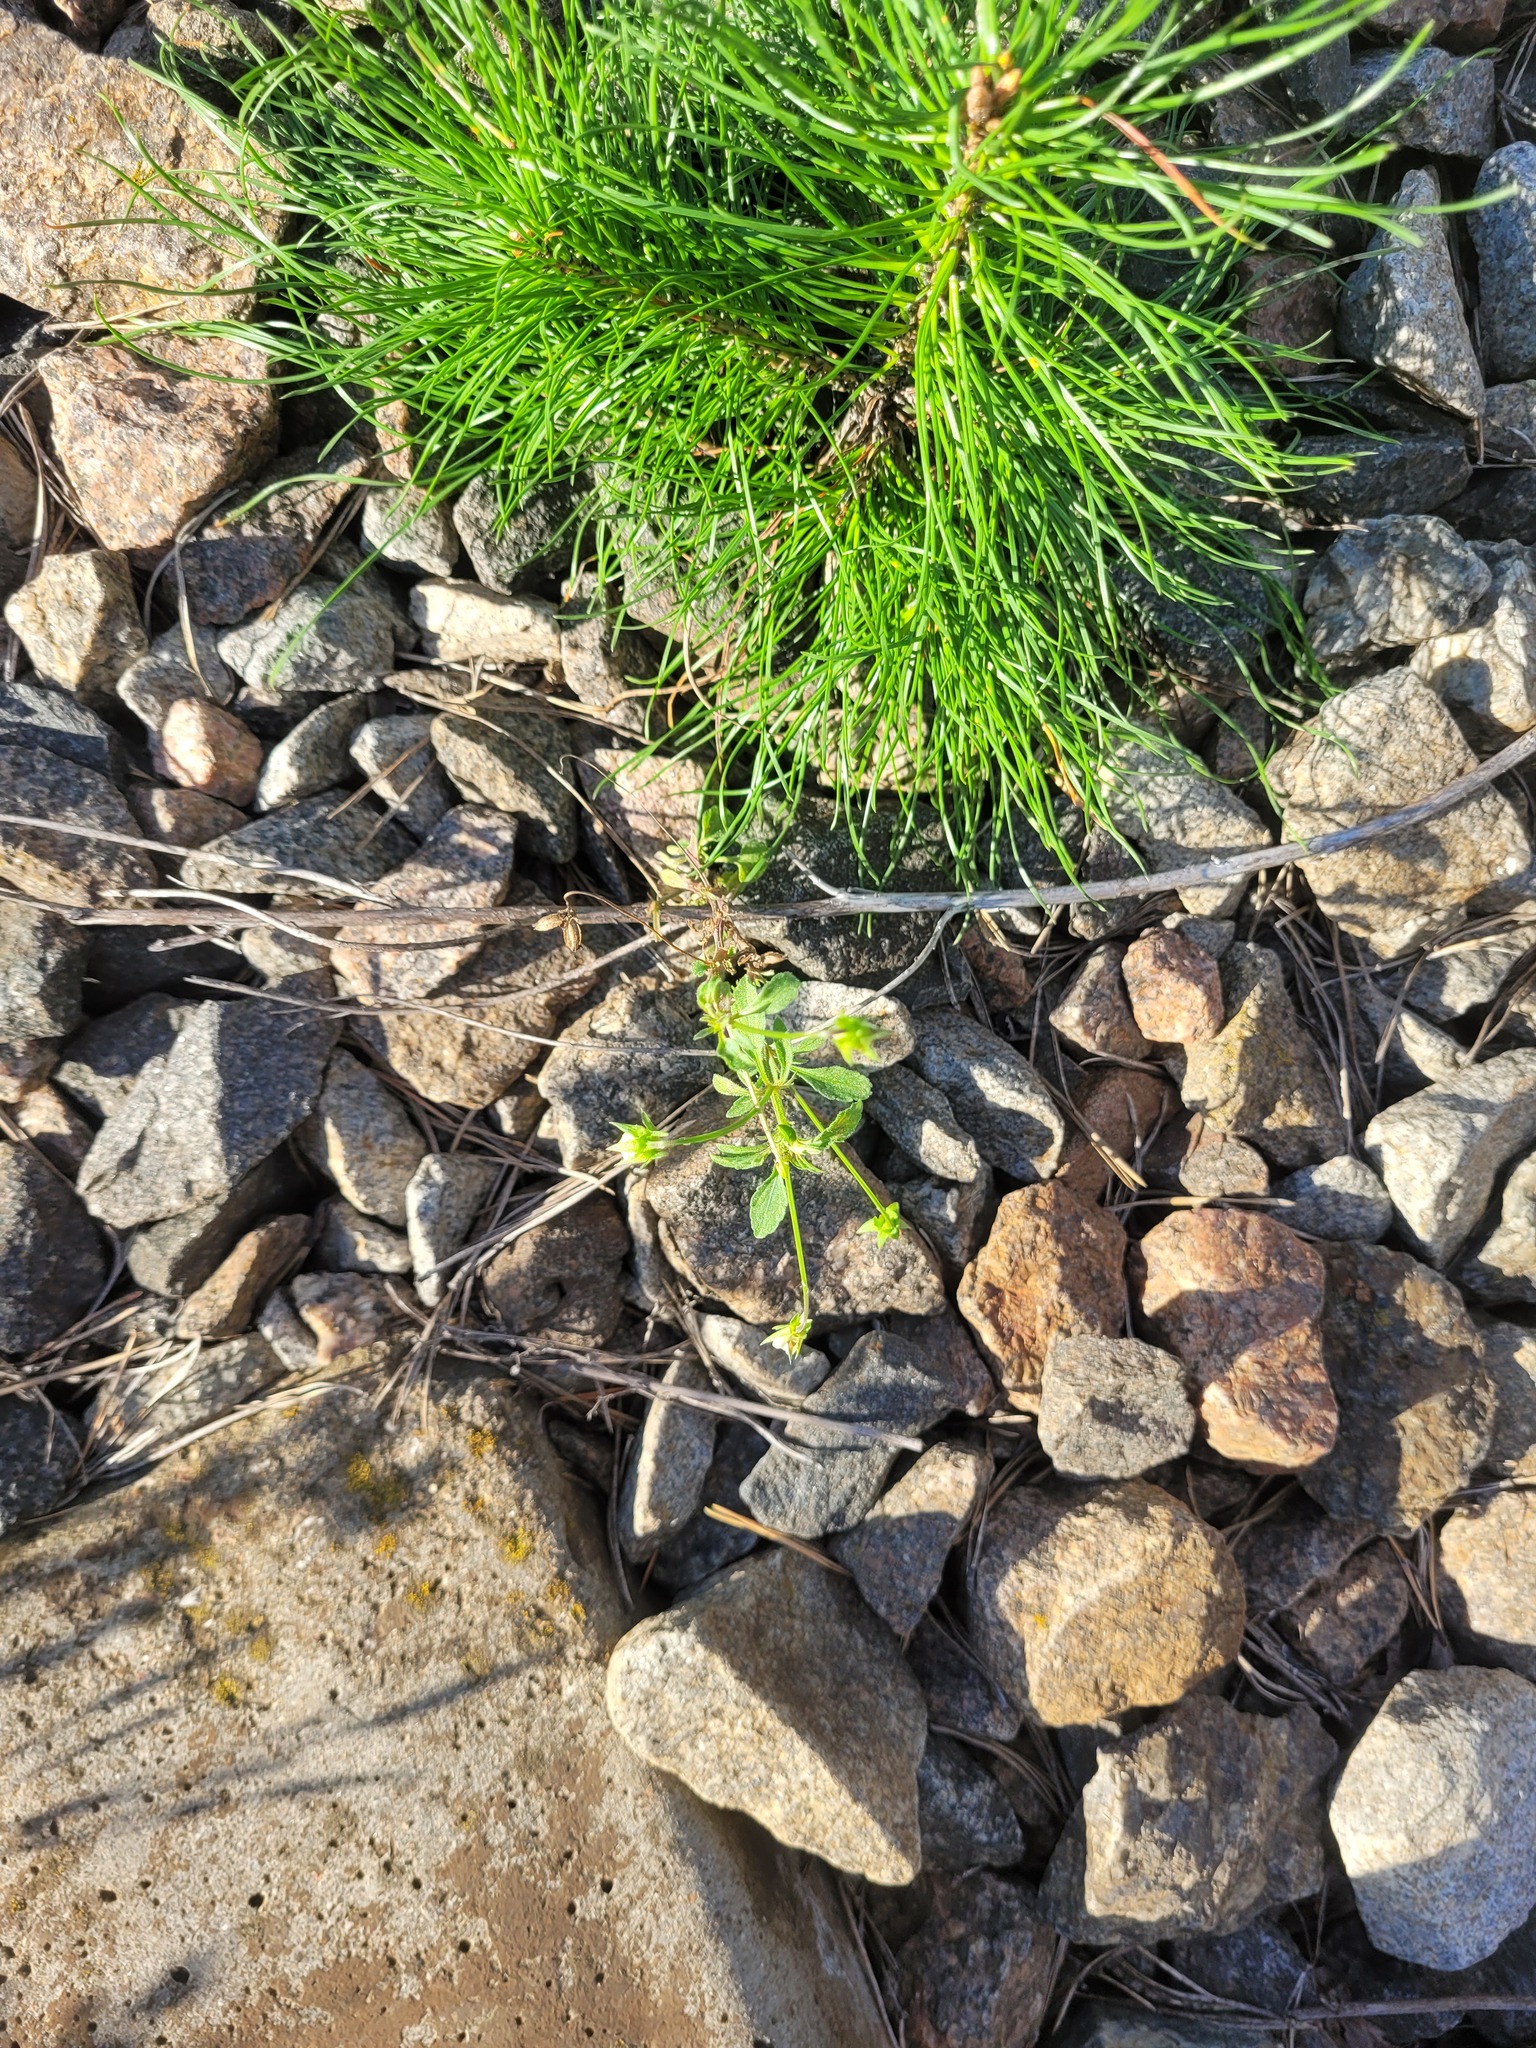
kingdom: Plantae
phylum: Tracheophyta
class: Magnoliopsida
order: Malpighiales
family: Violaceae
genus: Viola
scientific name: Viola arvensis
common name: Field pansy
